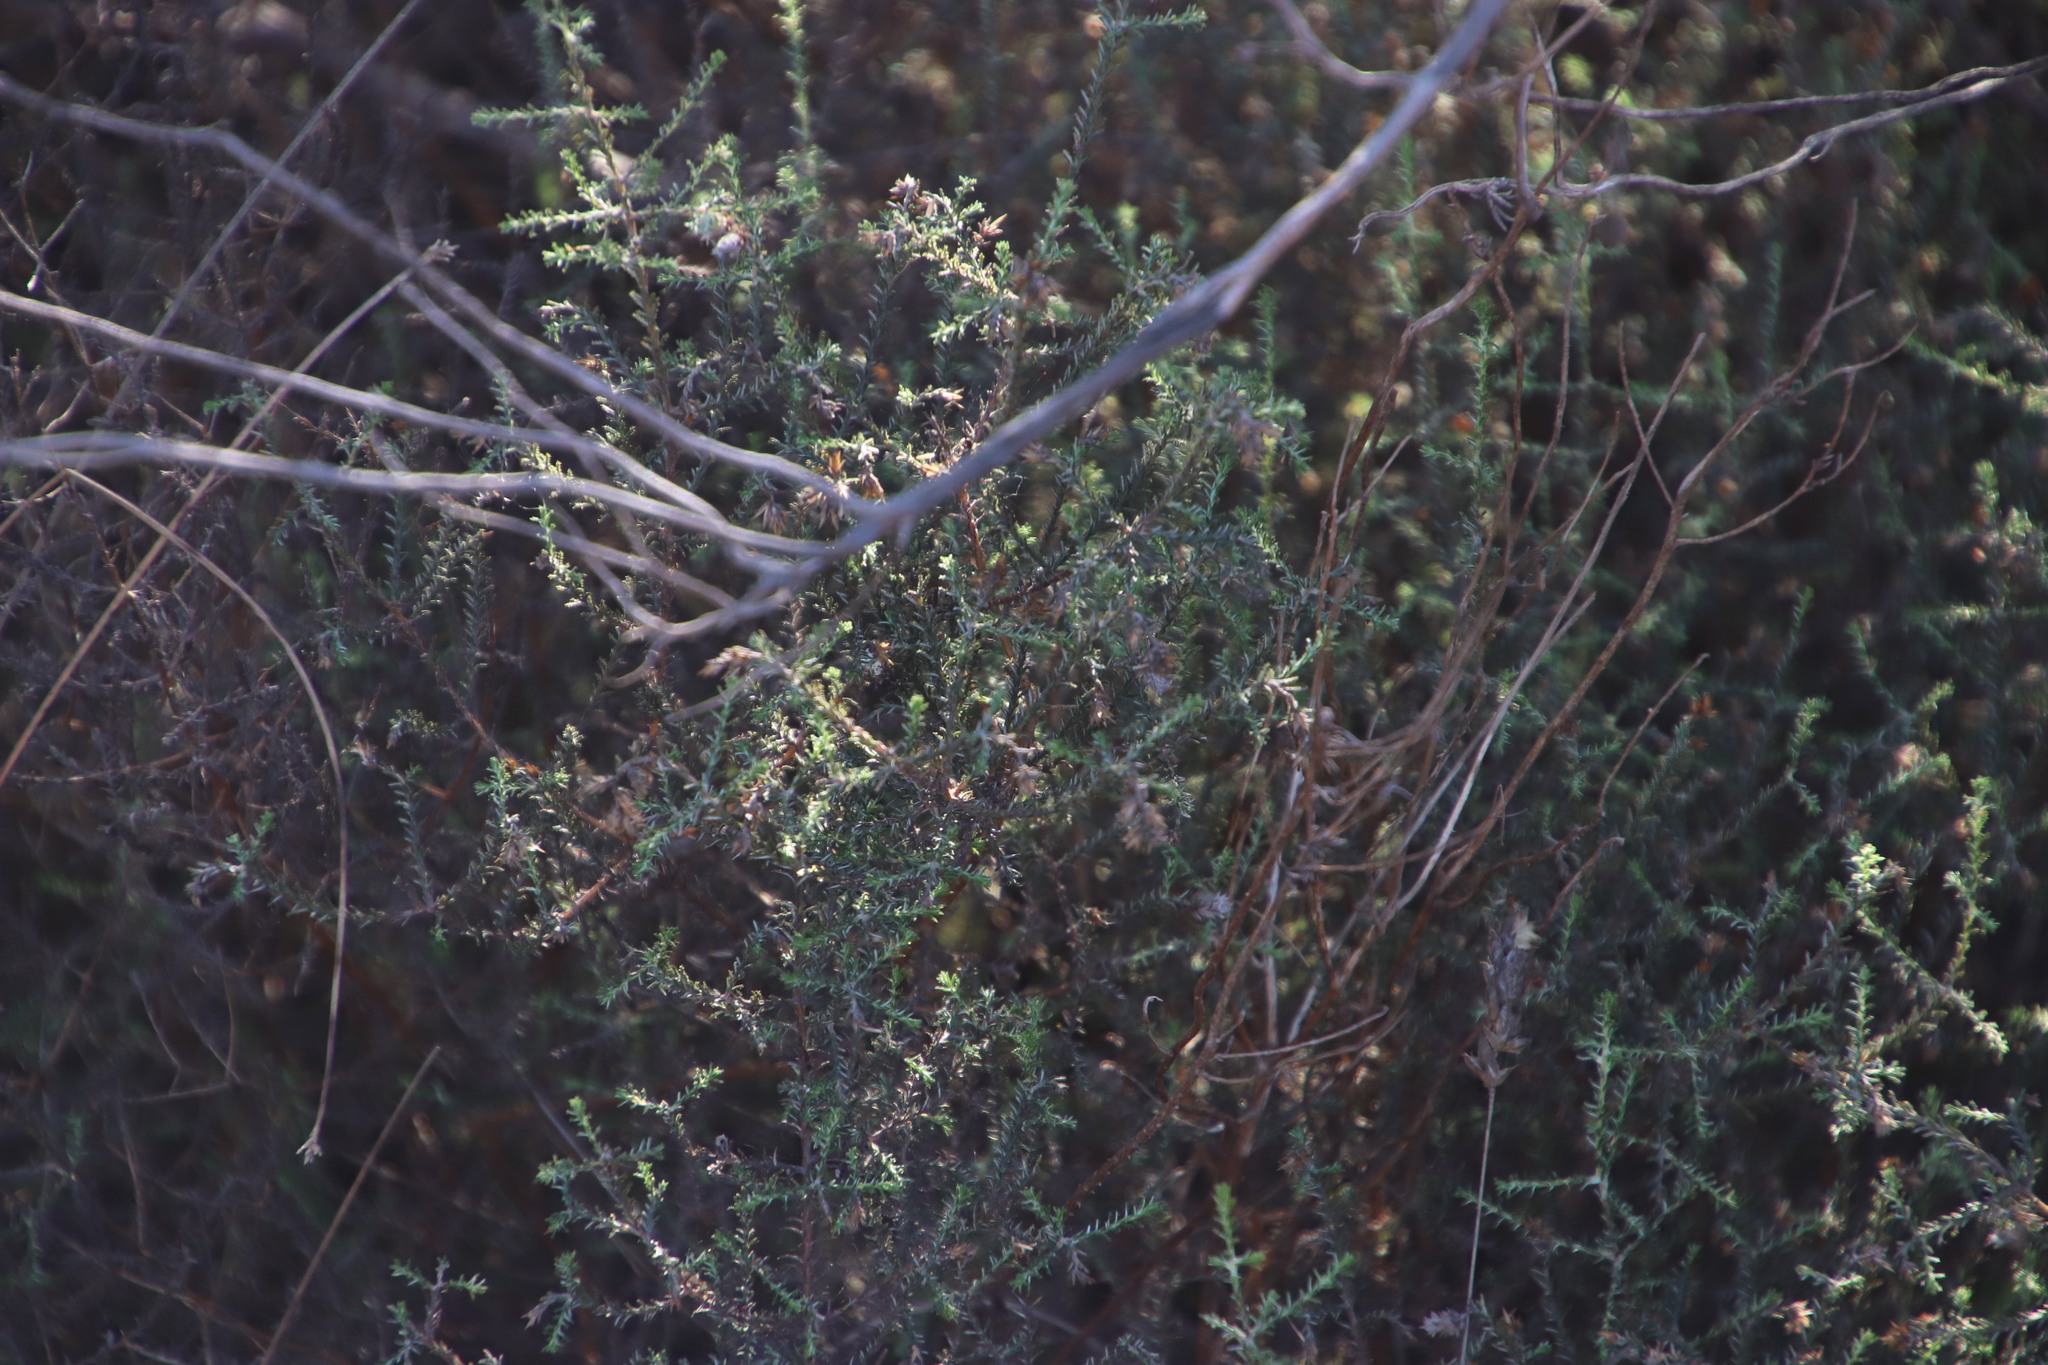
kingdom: Plantae
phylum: Tracheophyta
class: Magnoliopsida
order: Asterales
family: Asteraceae
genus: Myrovernix
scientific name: Myrovernix gnaphaloides
